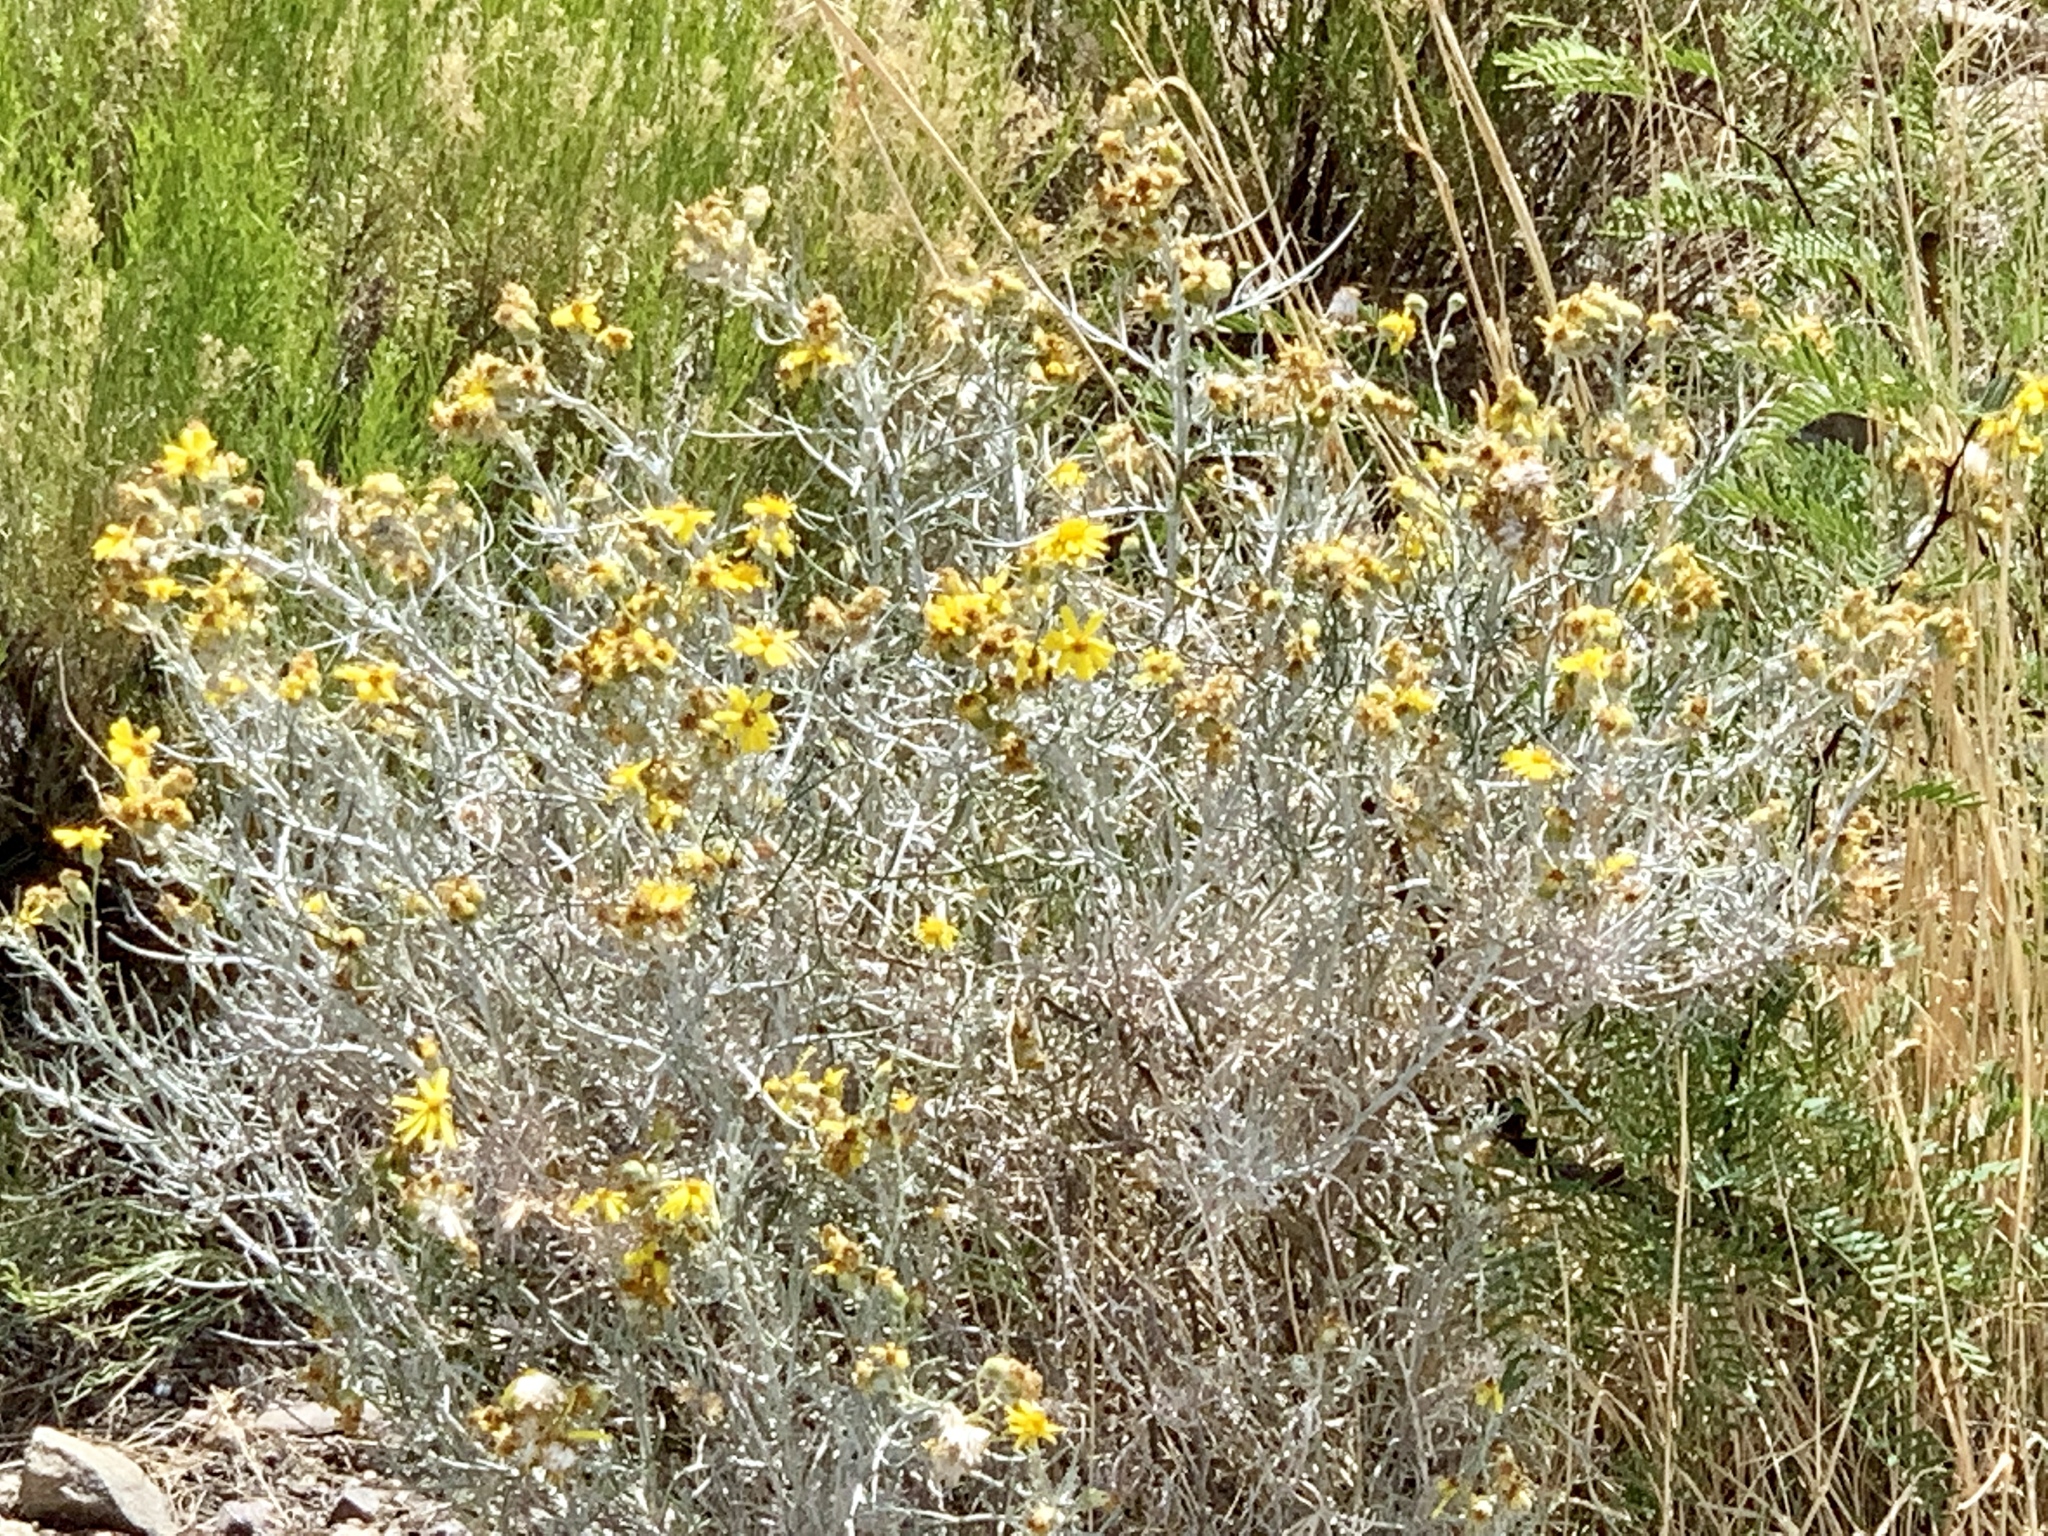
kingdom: Plantae
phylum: Tracheophyta
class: Magnoliopsida
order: Asterales
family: Asteraceae
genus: Senecio
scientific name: Senecio flaccidus
